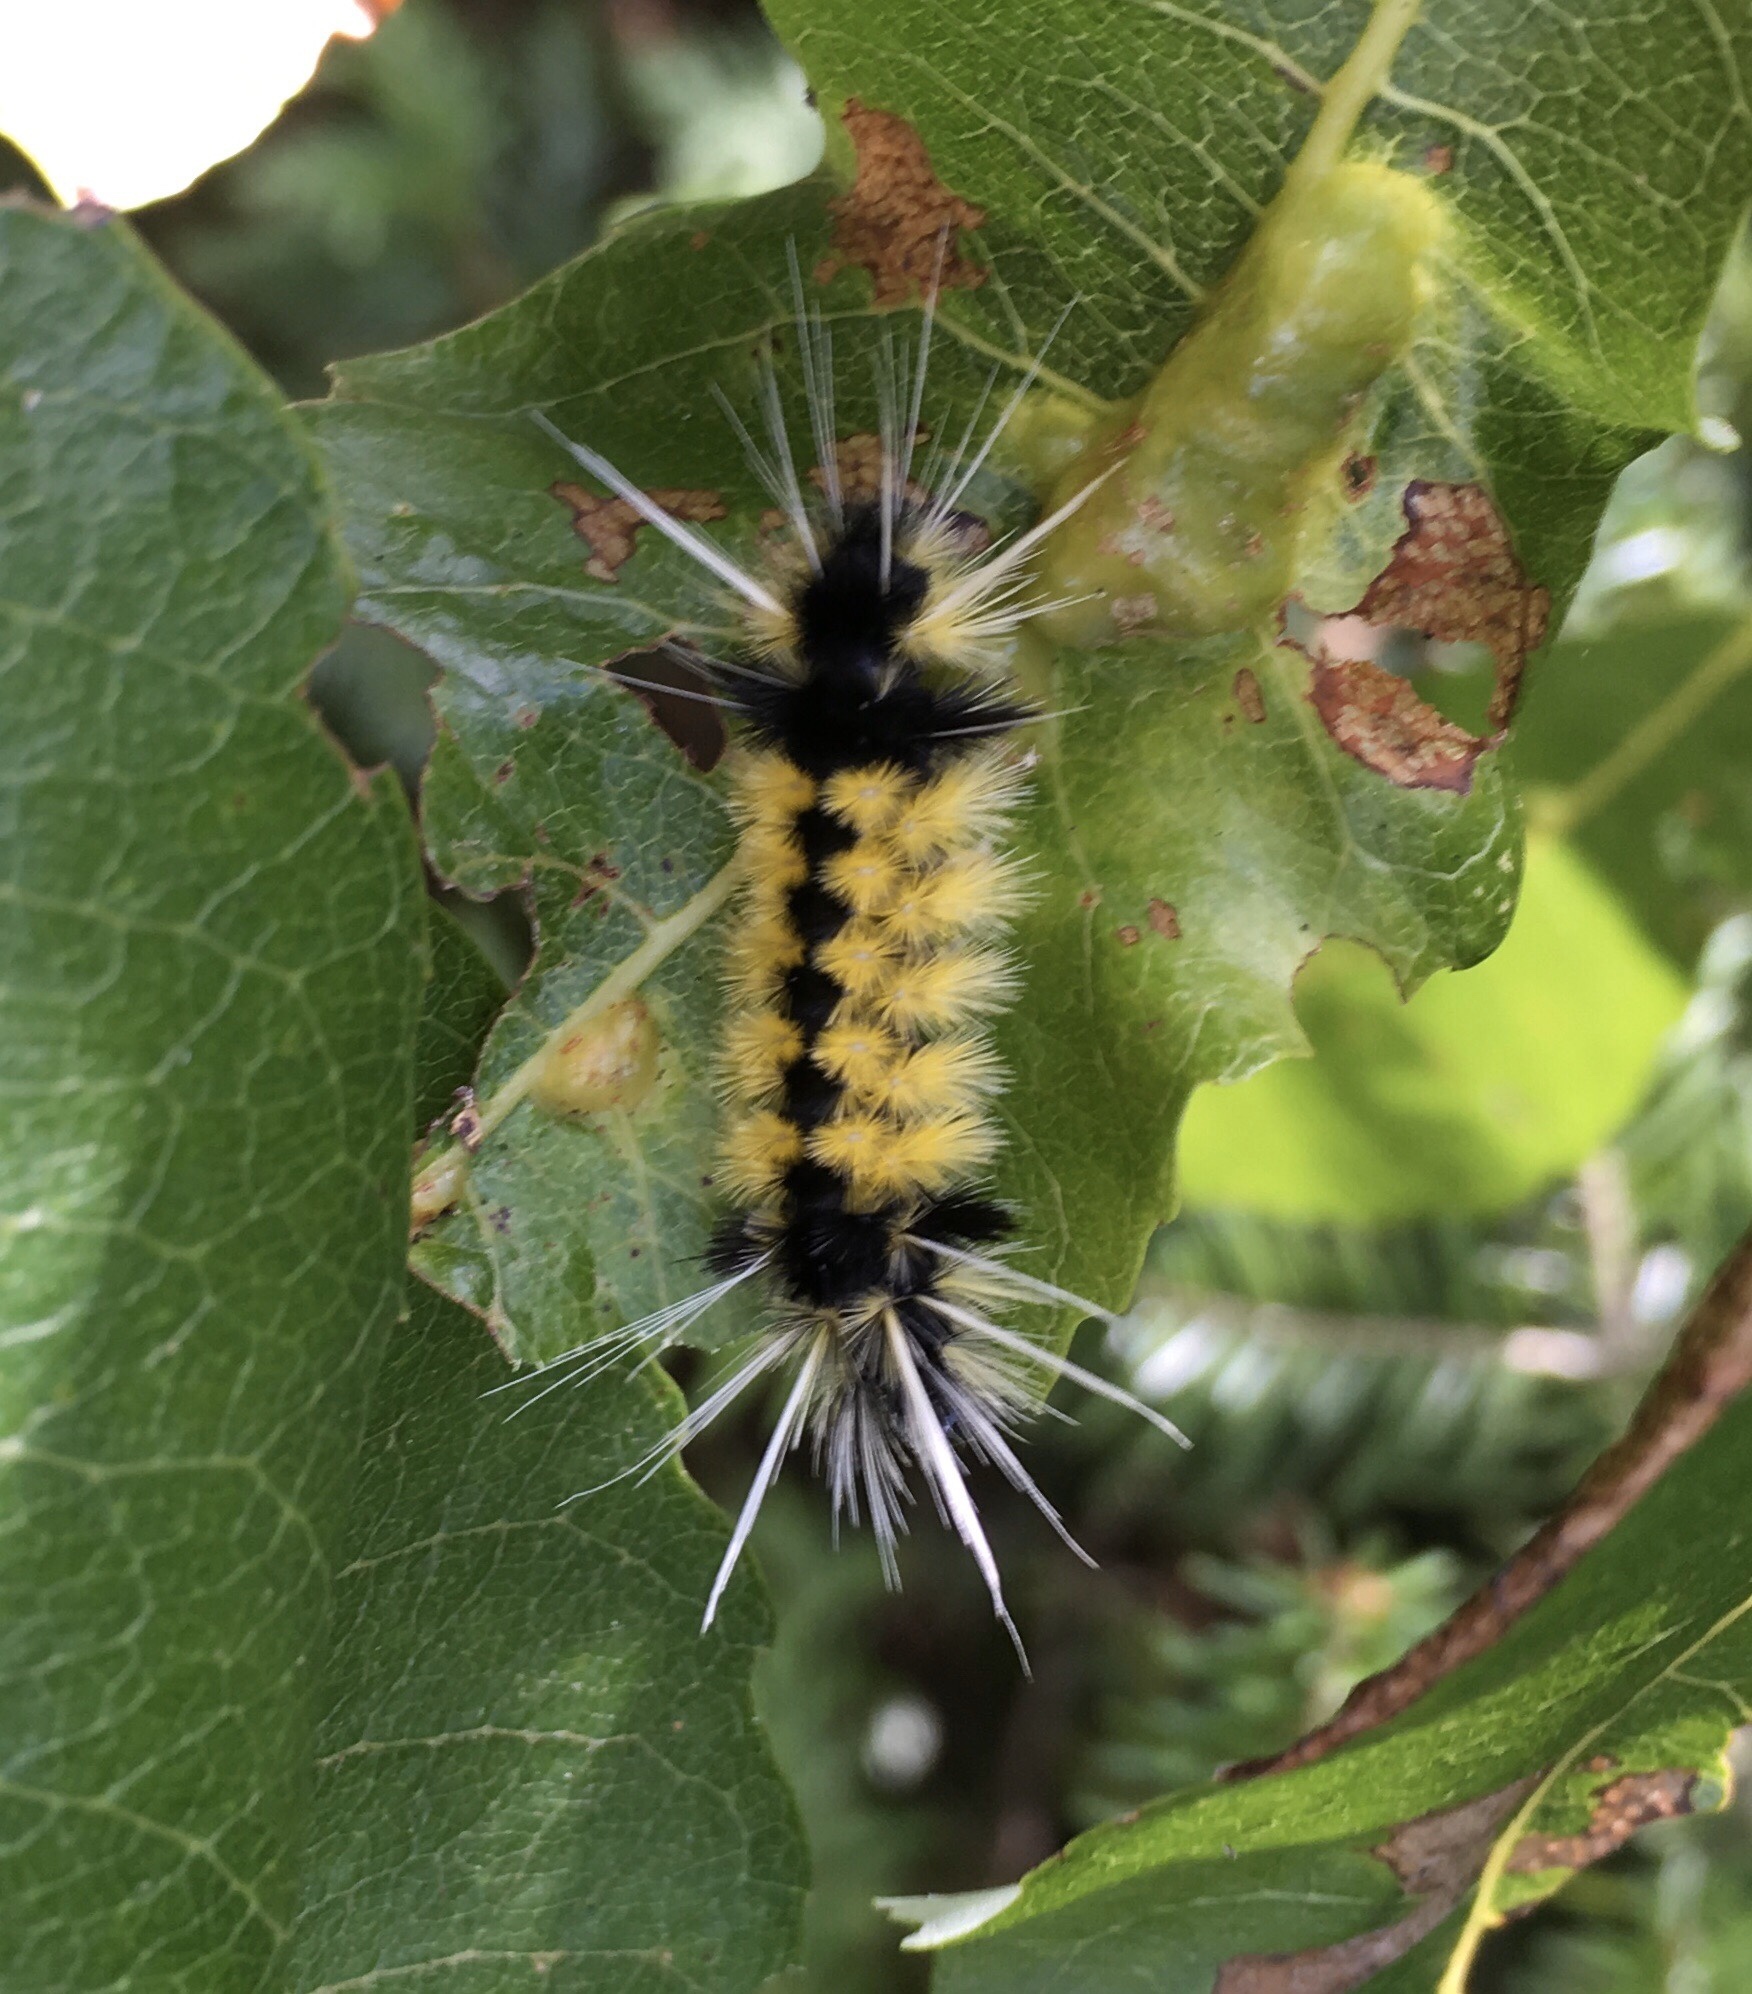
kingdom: Animalia
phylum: Arthropoda
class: Insecta
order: Lepidoptera
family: Erebidae
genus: Lophocampa
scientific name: Lophocampa maculata
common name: Spotted tussock moth
